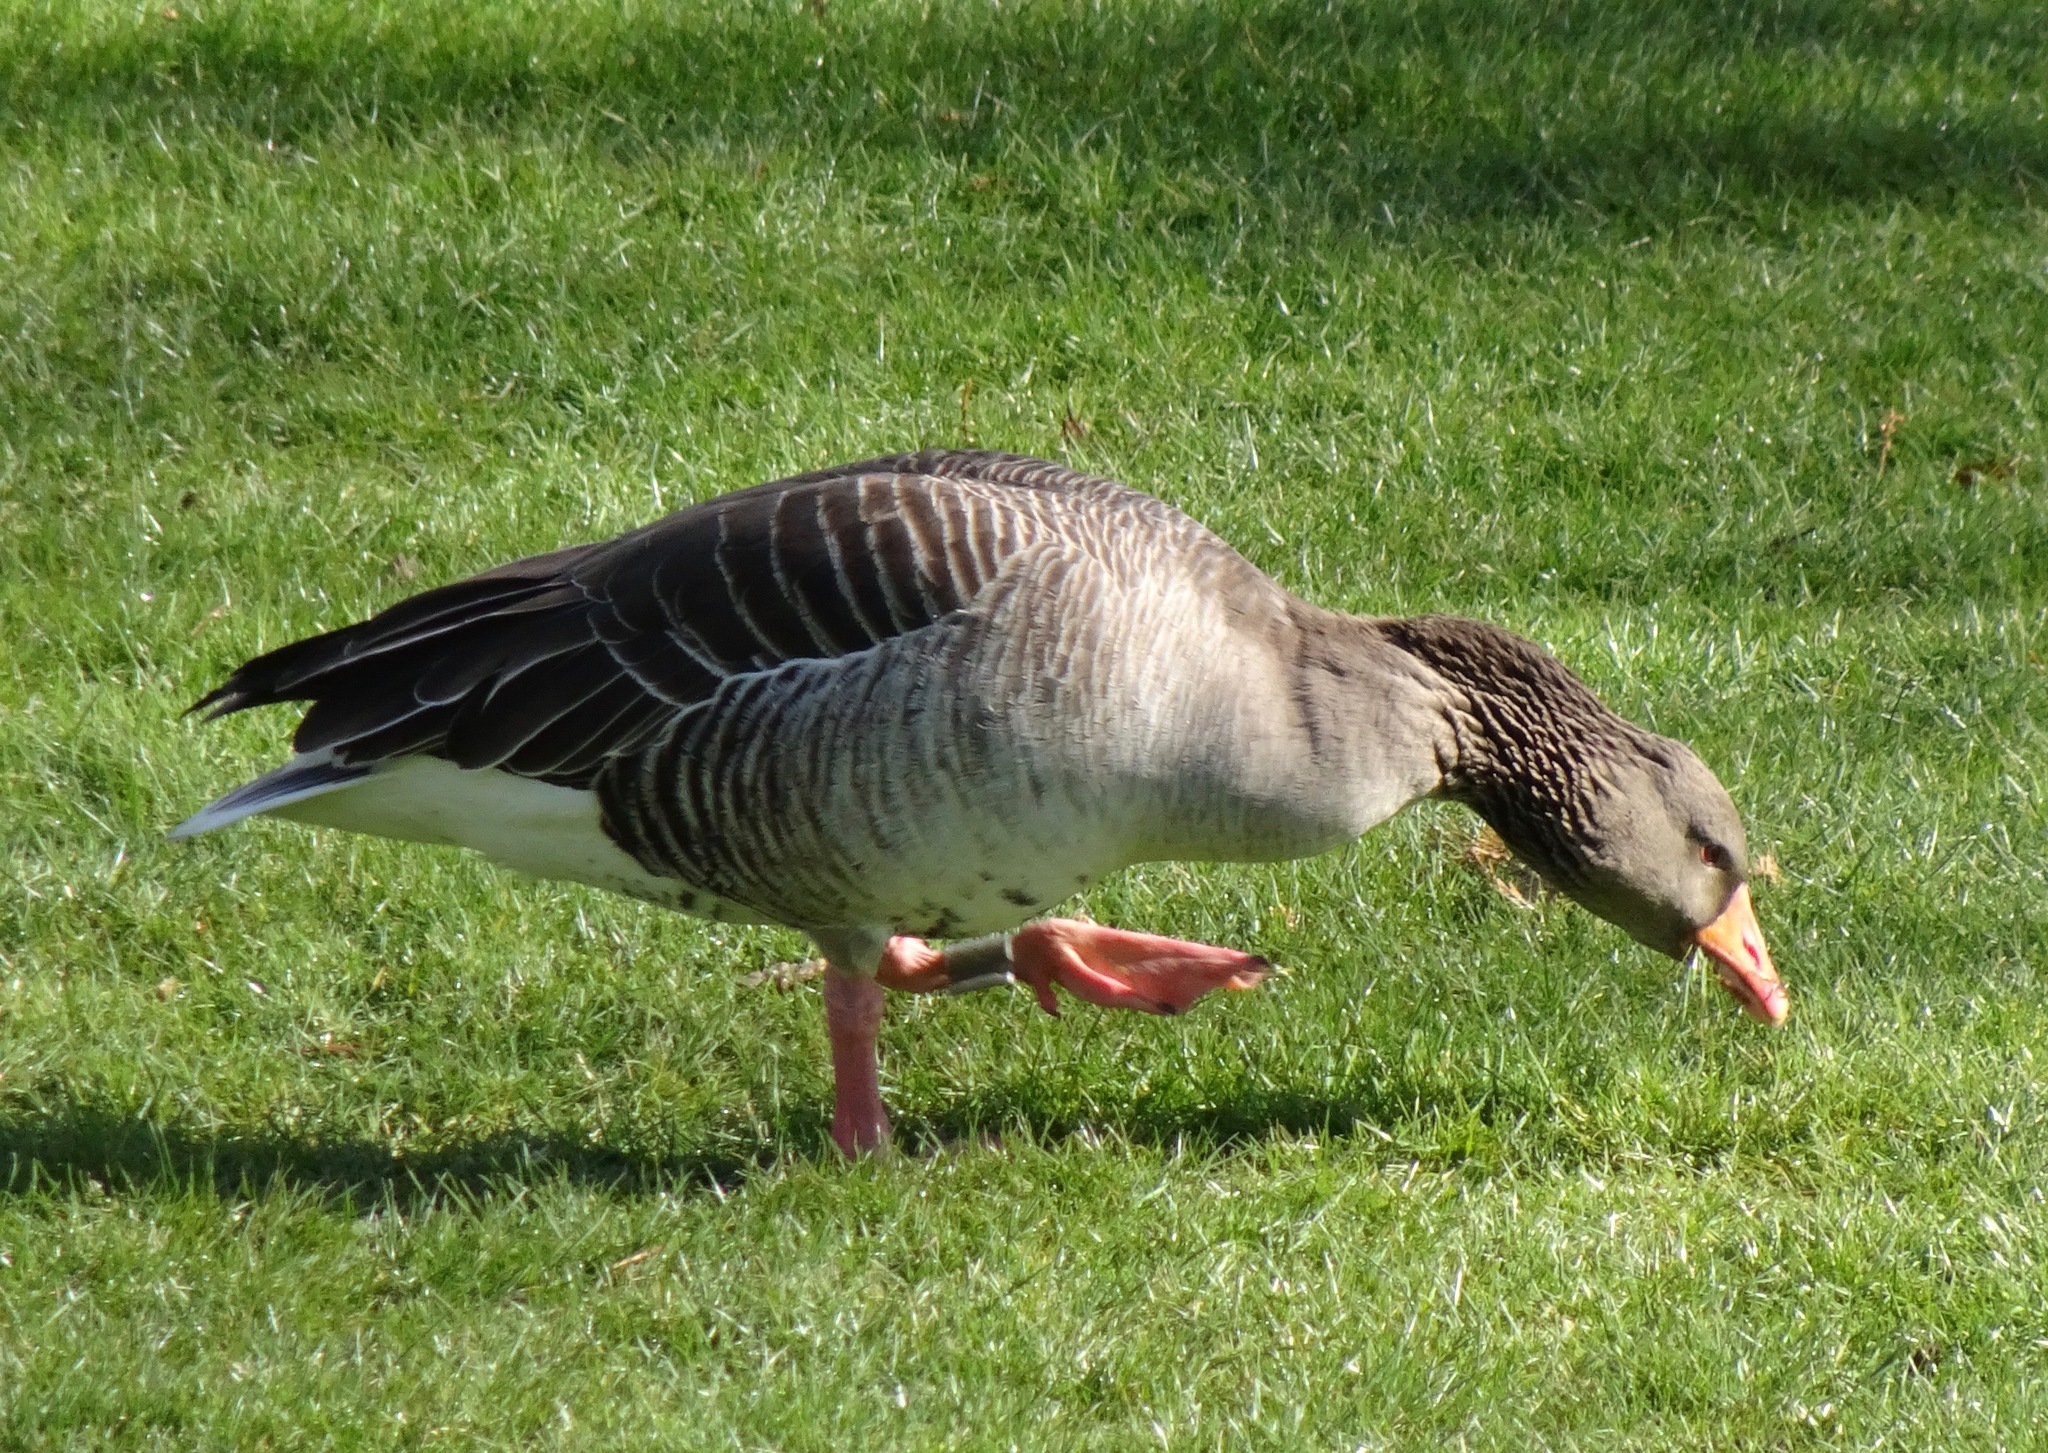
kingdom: Animalia
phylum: Chordata
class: Aves
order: Anseriformes
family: Anatidae
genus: Anser
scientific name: Anser anser
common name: Greylag goose
